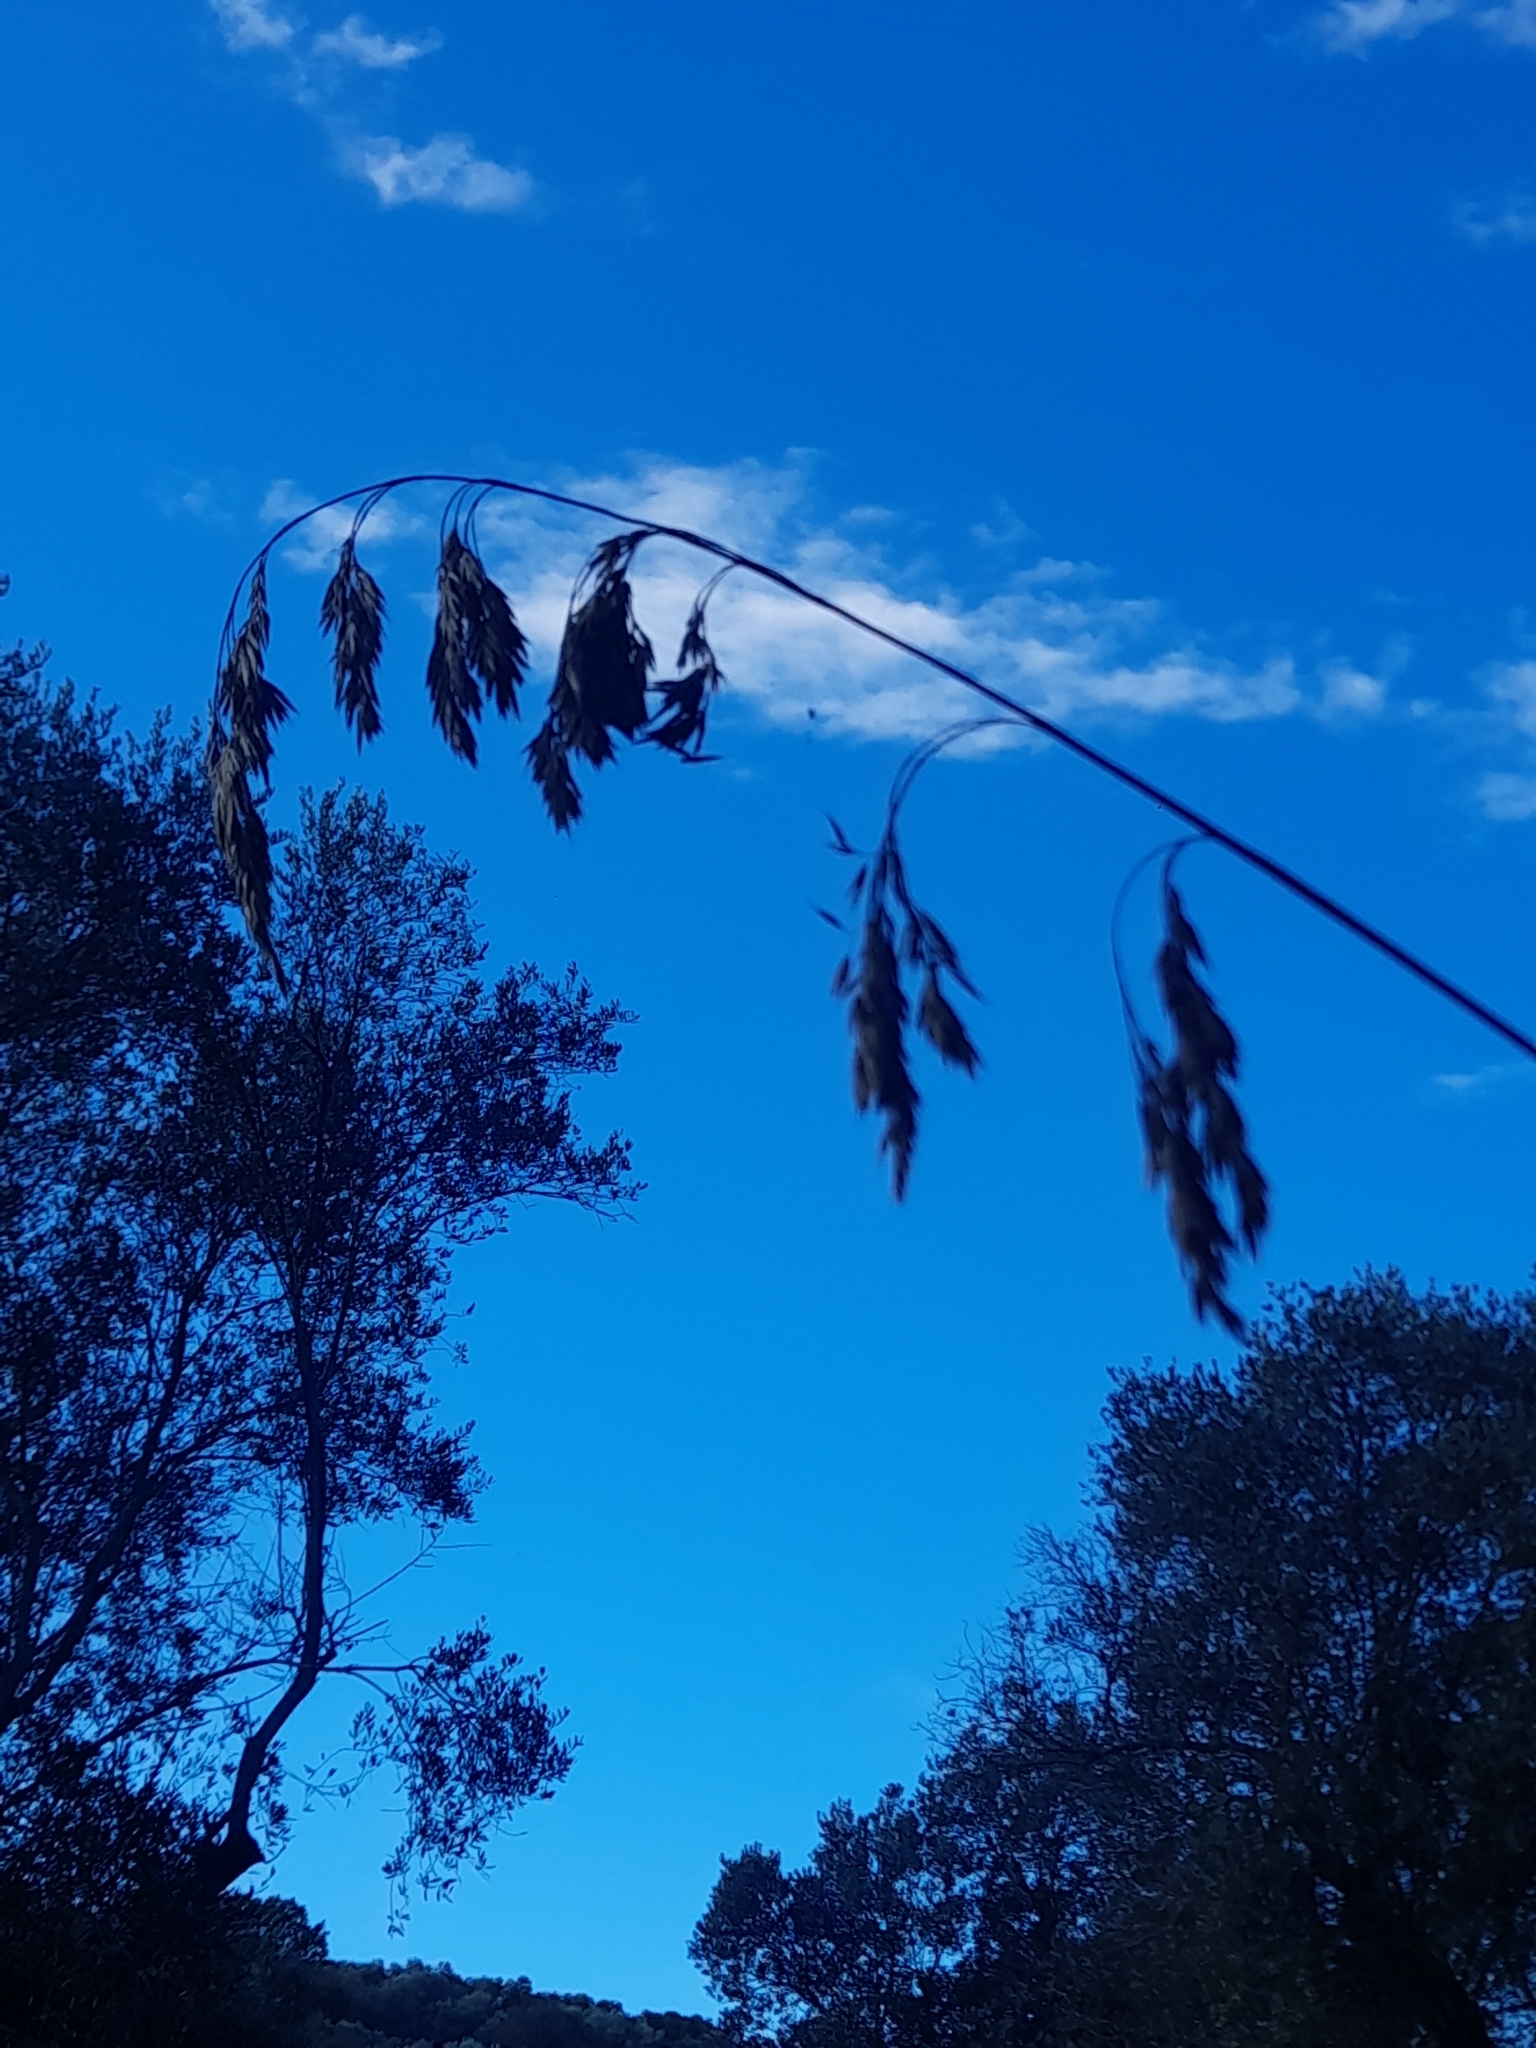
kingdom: Plantae
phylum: Tracheophyta
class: Liliopsida
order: Poales
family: Poaceae
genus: Ampelodesmos
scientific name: Ampelodesmos mauritanicus
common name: Mauritanian grass
